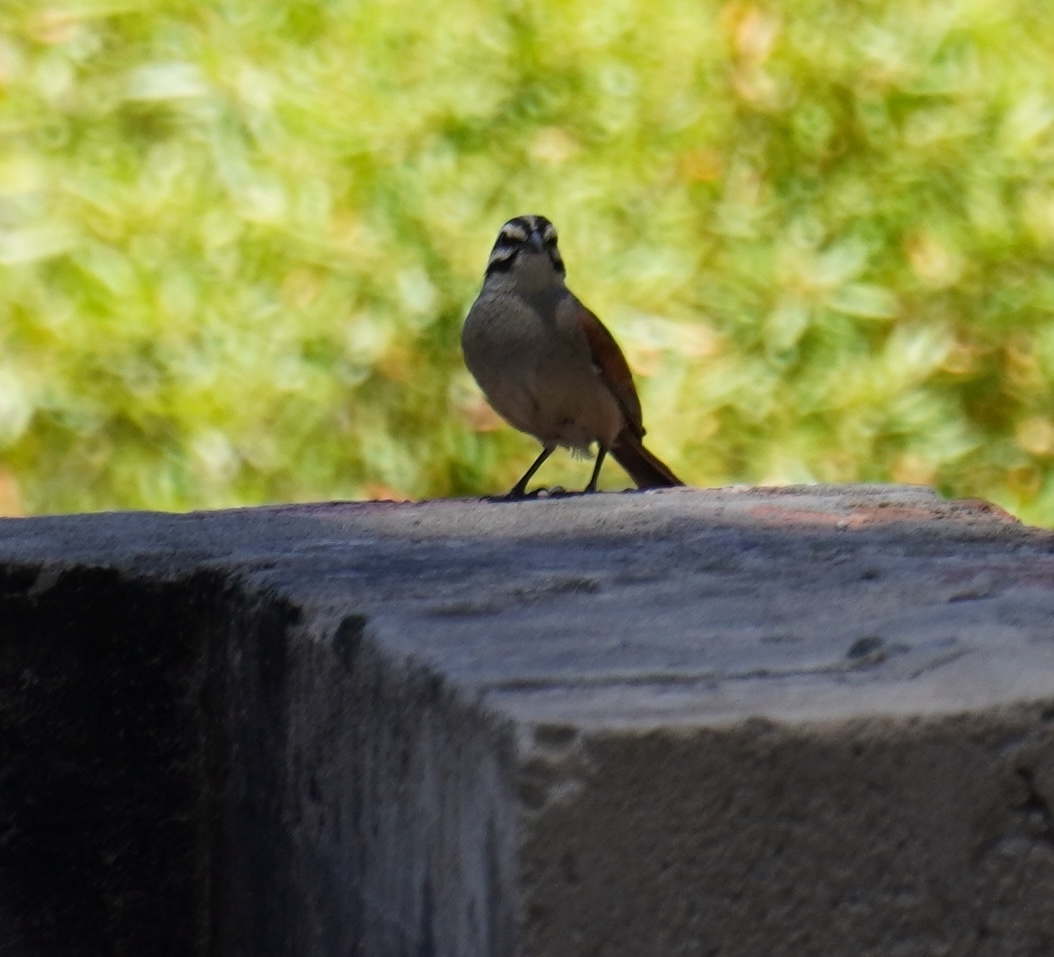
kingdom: Animalia
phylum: Chordata
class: Aves
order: Passeriformes
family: Emberizidae
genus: Emberiza
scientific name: Emberiza capensis
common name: Cape bunting
